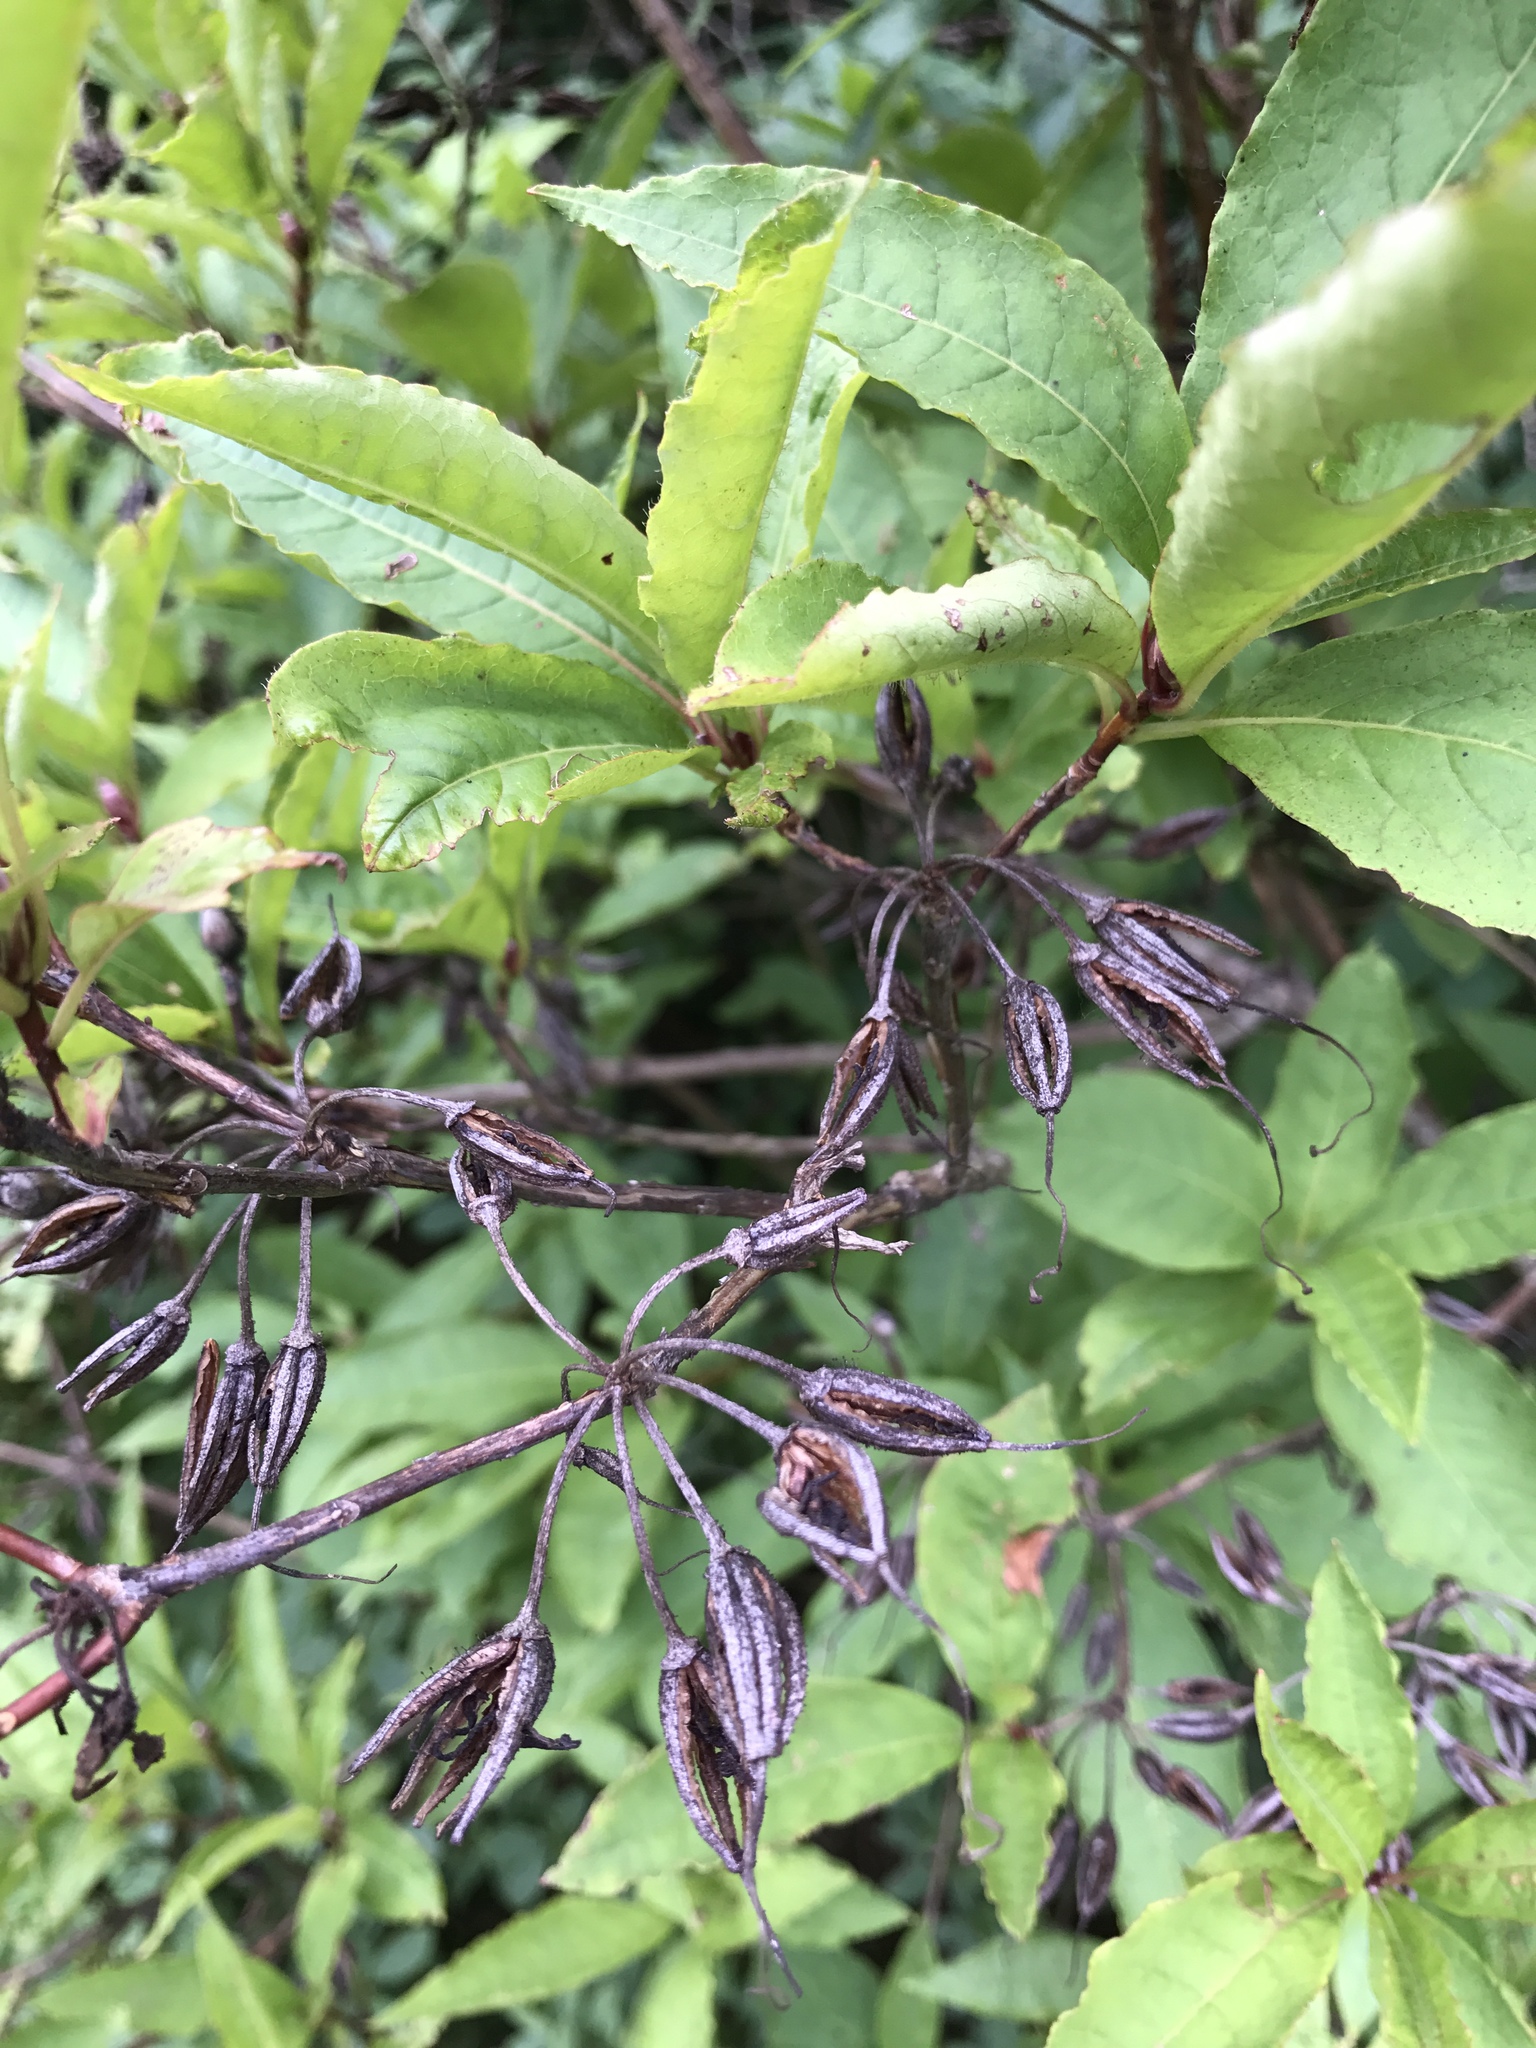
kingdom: Plantae
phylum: Tracheophyta
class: Magnoliopsida
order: Ericales
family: Ericaceae
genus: Rhododendron
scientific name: Rhododendron vaseyi
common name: Pink-shell azalea
